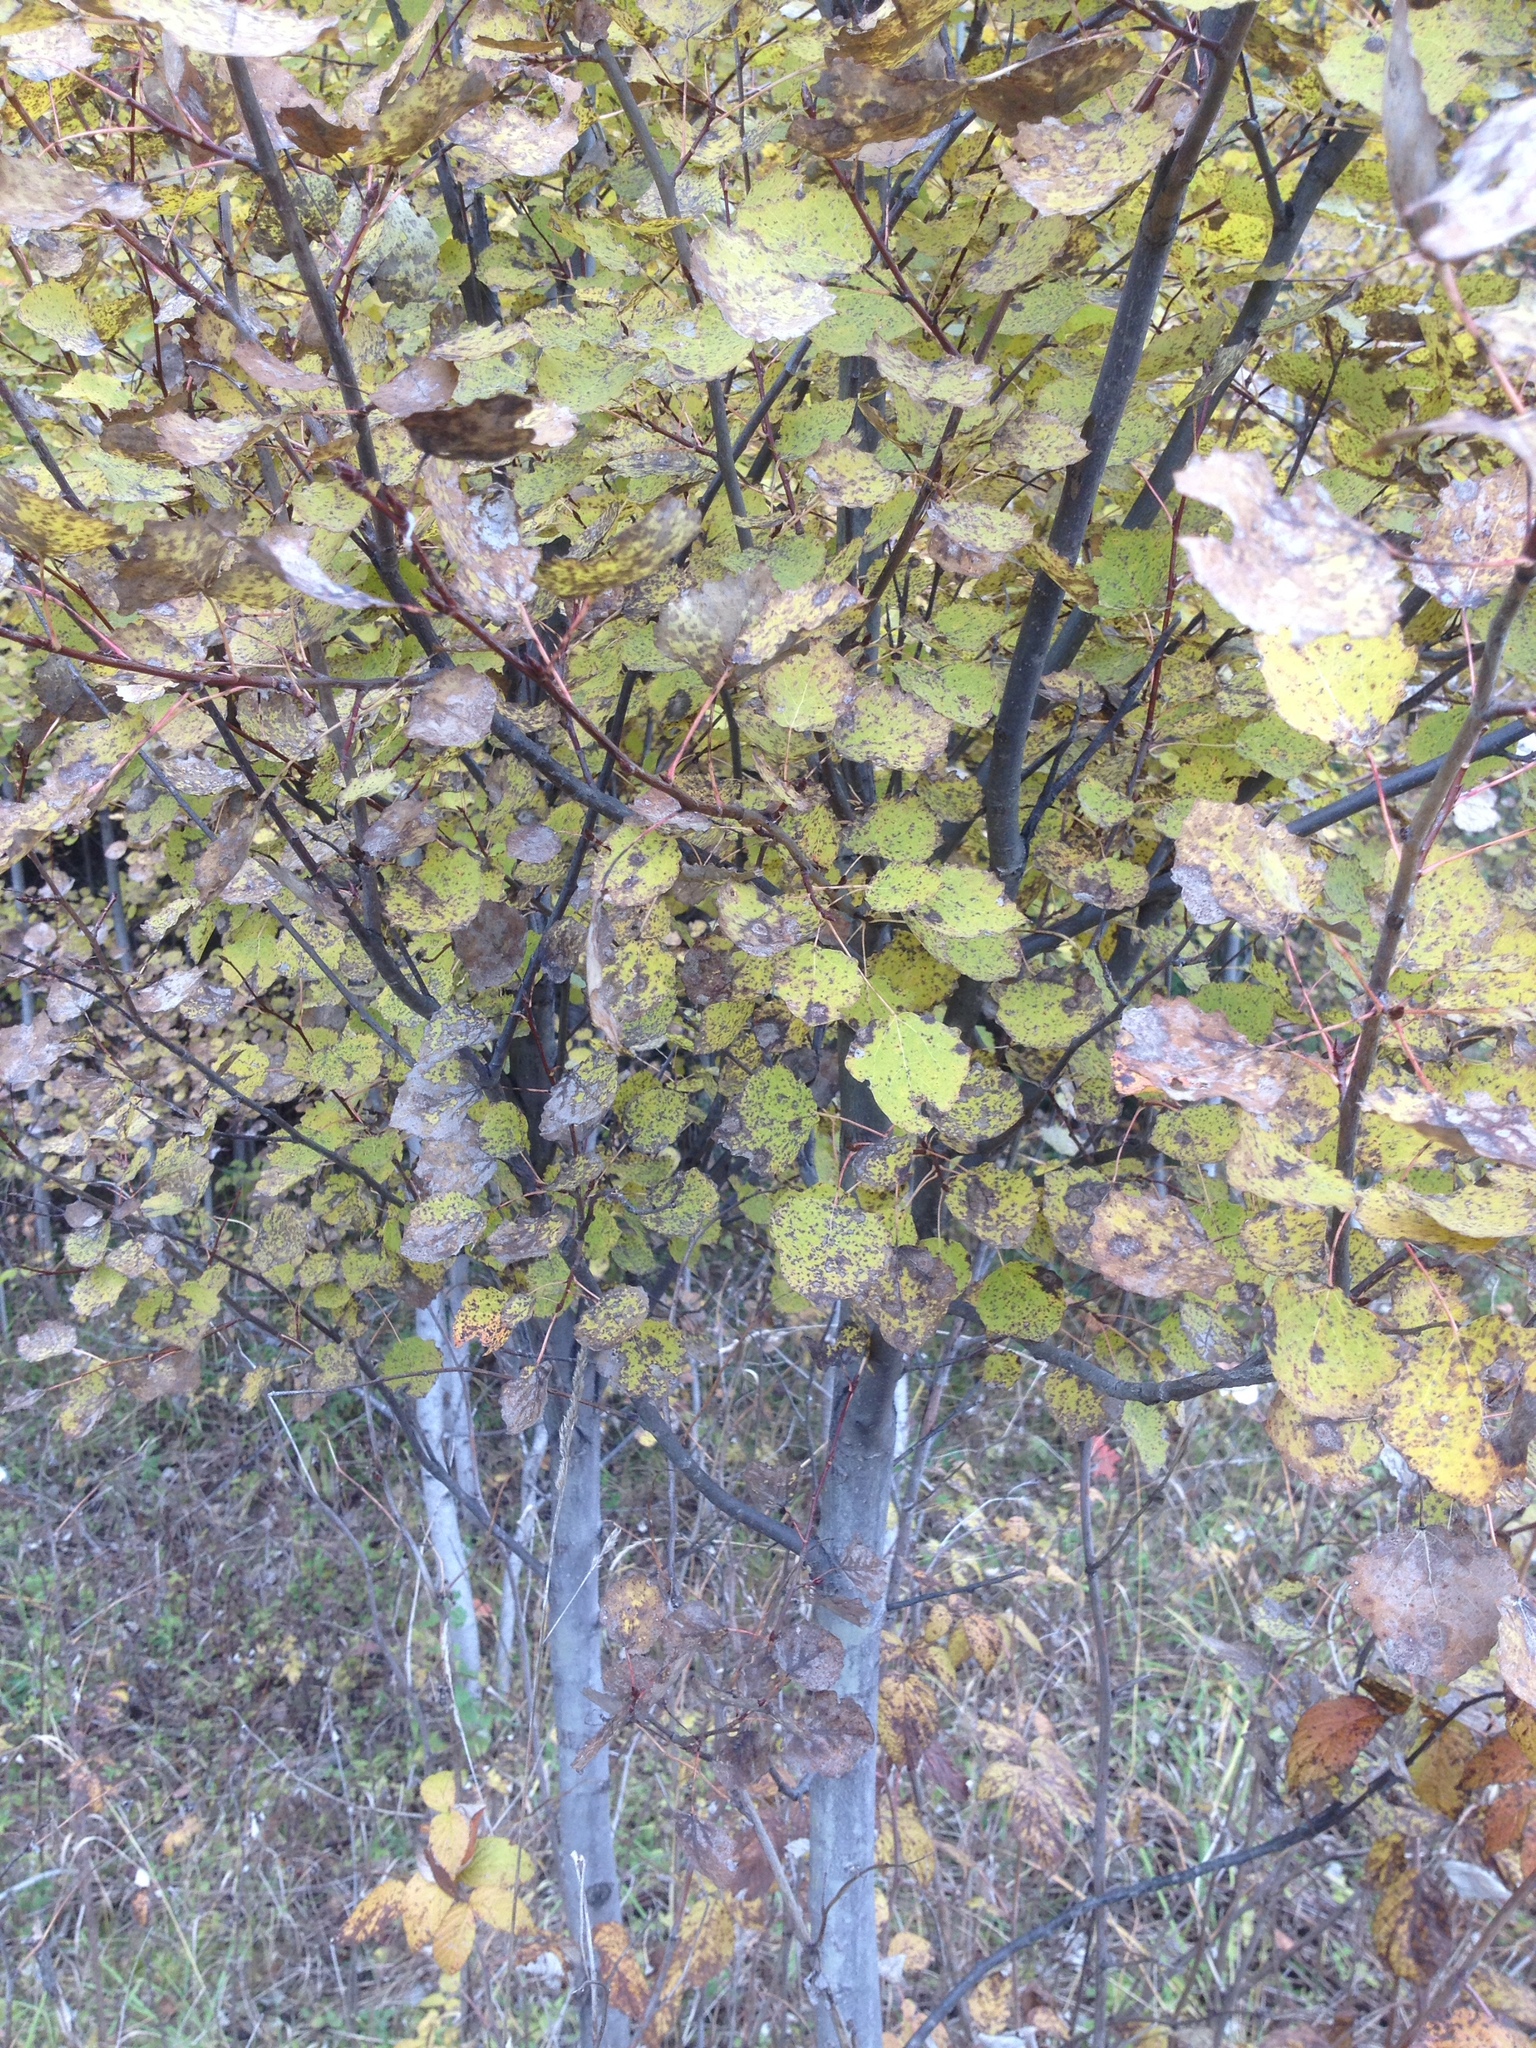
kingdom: Plantae
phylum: Tracheophyta
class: Magnoliopsida
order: Malpighiales
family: Salicaceae
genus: Populus
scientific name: Populus tremula
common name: European aspen
